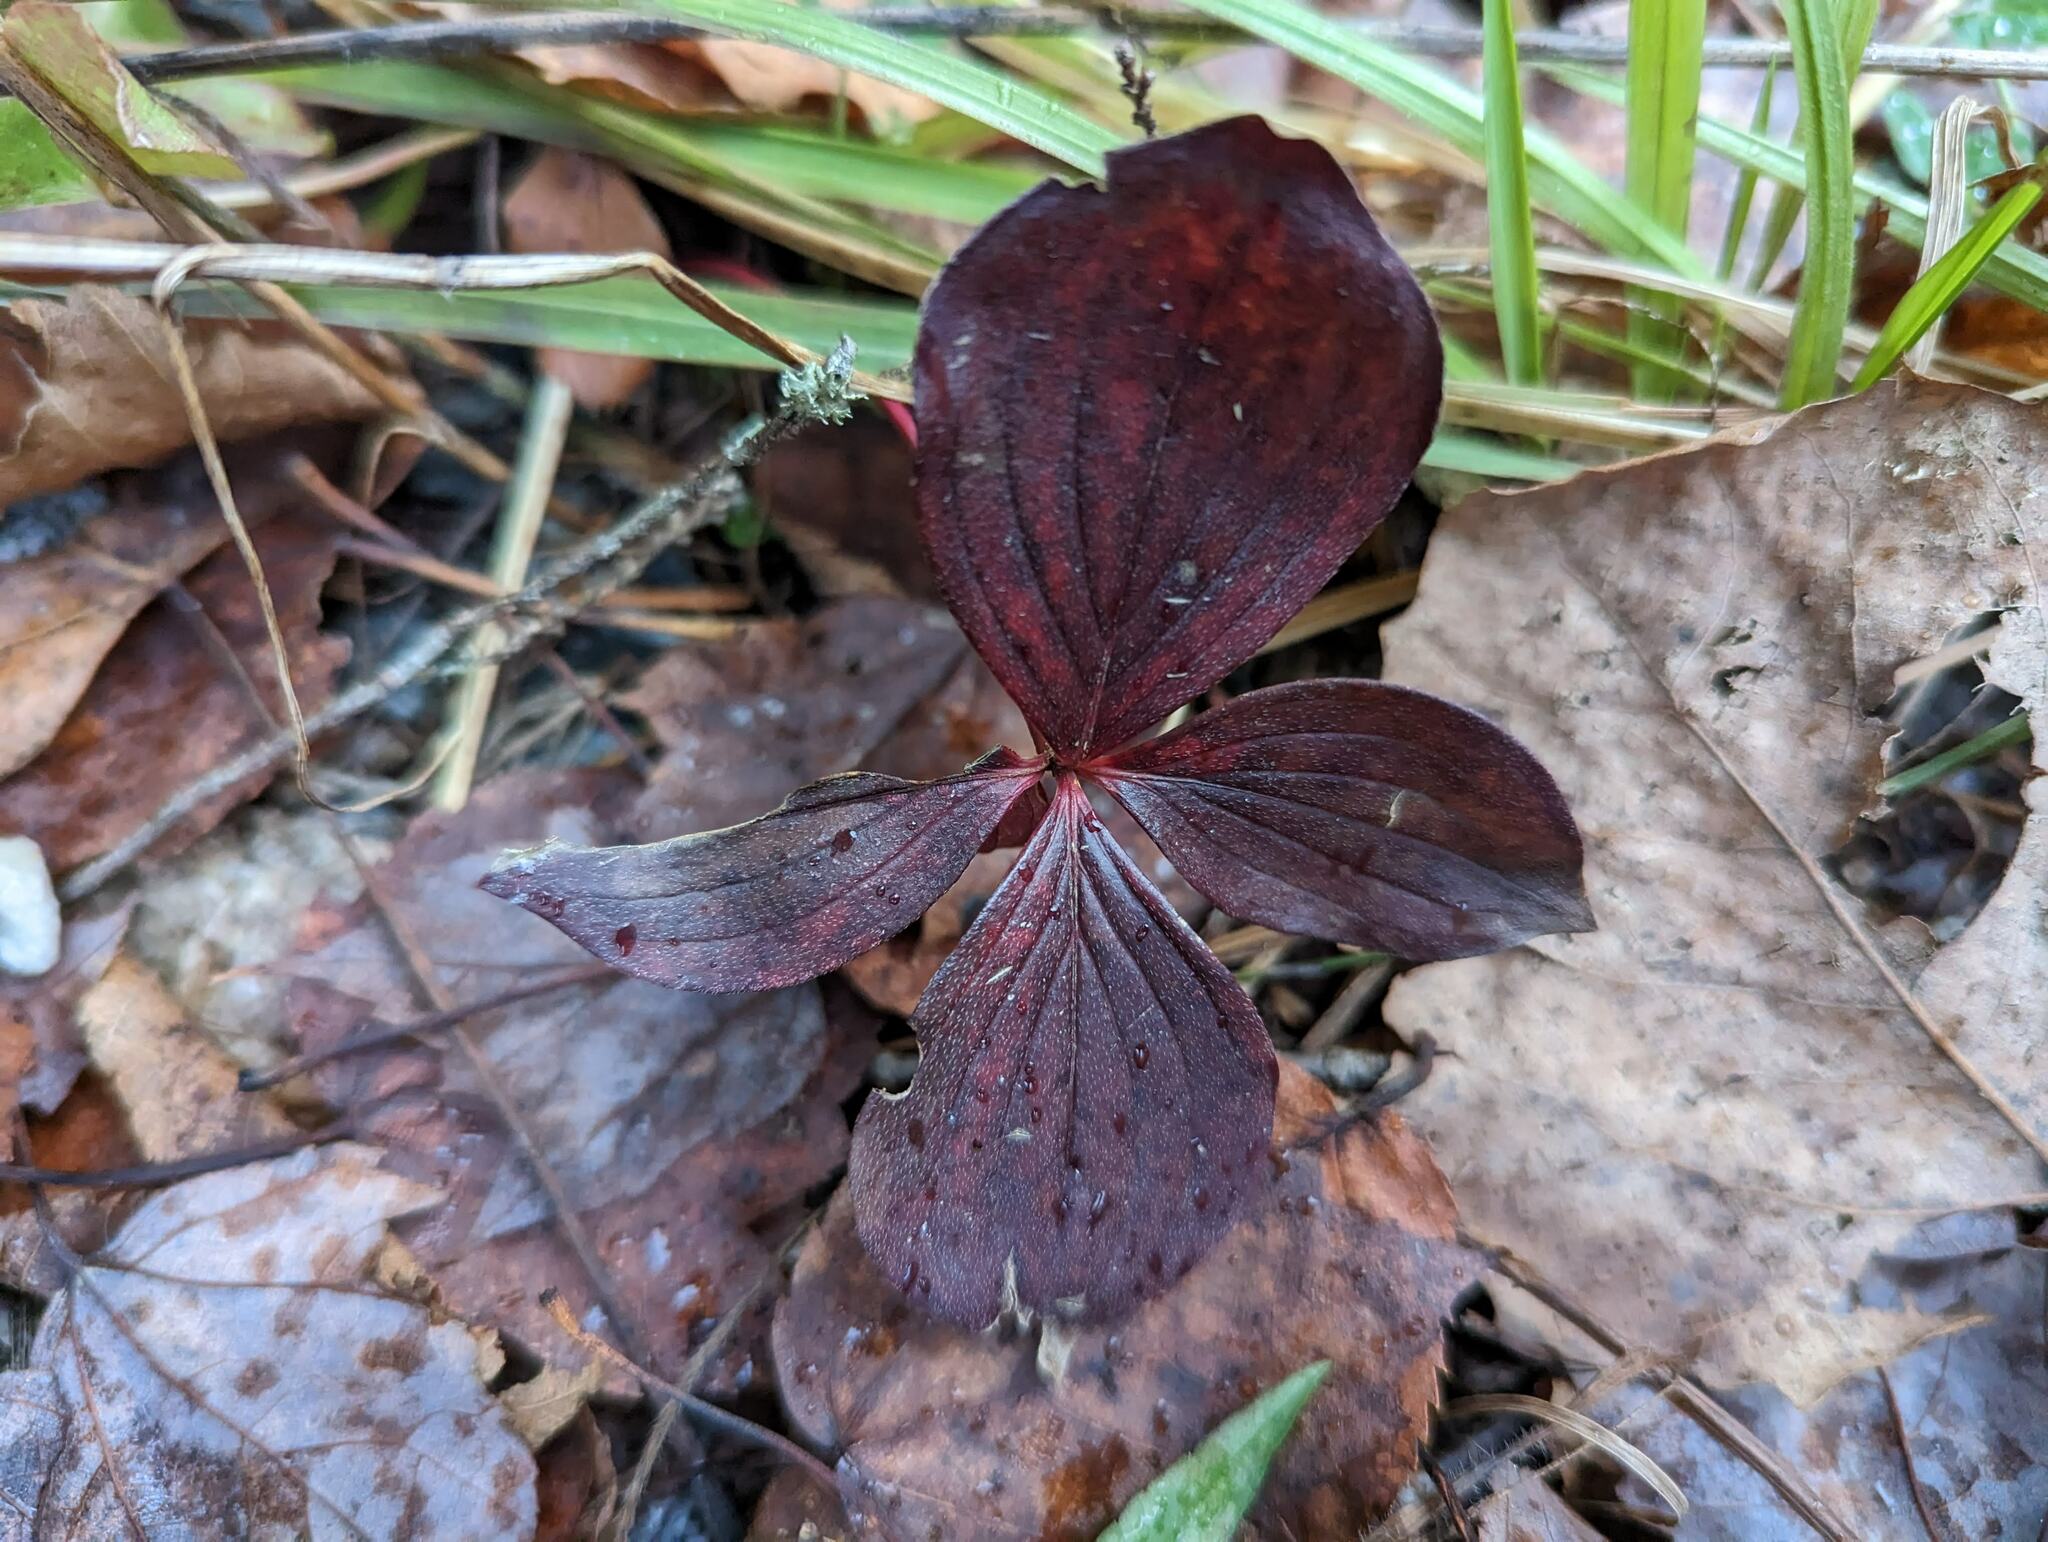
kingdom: Plantae
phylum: Tracheophyta
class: Magnoliopsida
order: Cornales
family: Cornaceae
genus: Cornus
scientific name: Cornus canadensis
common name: Creeping dogwood
